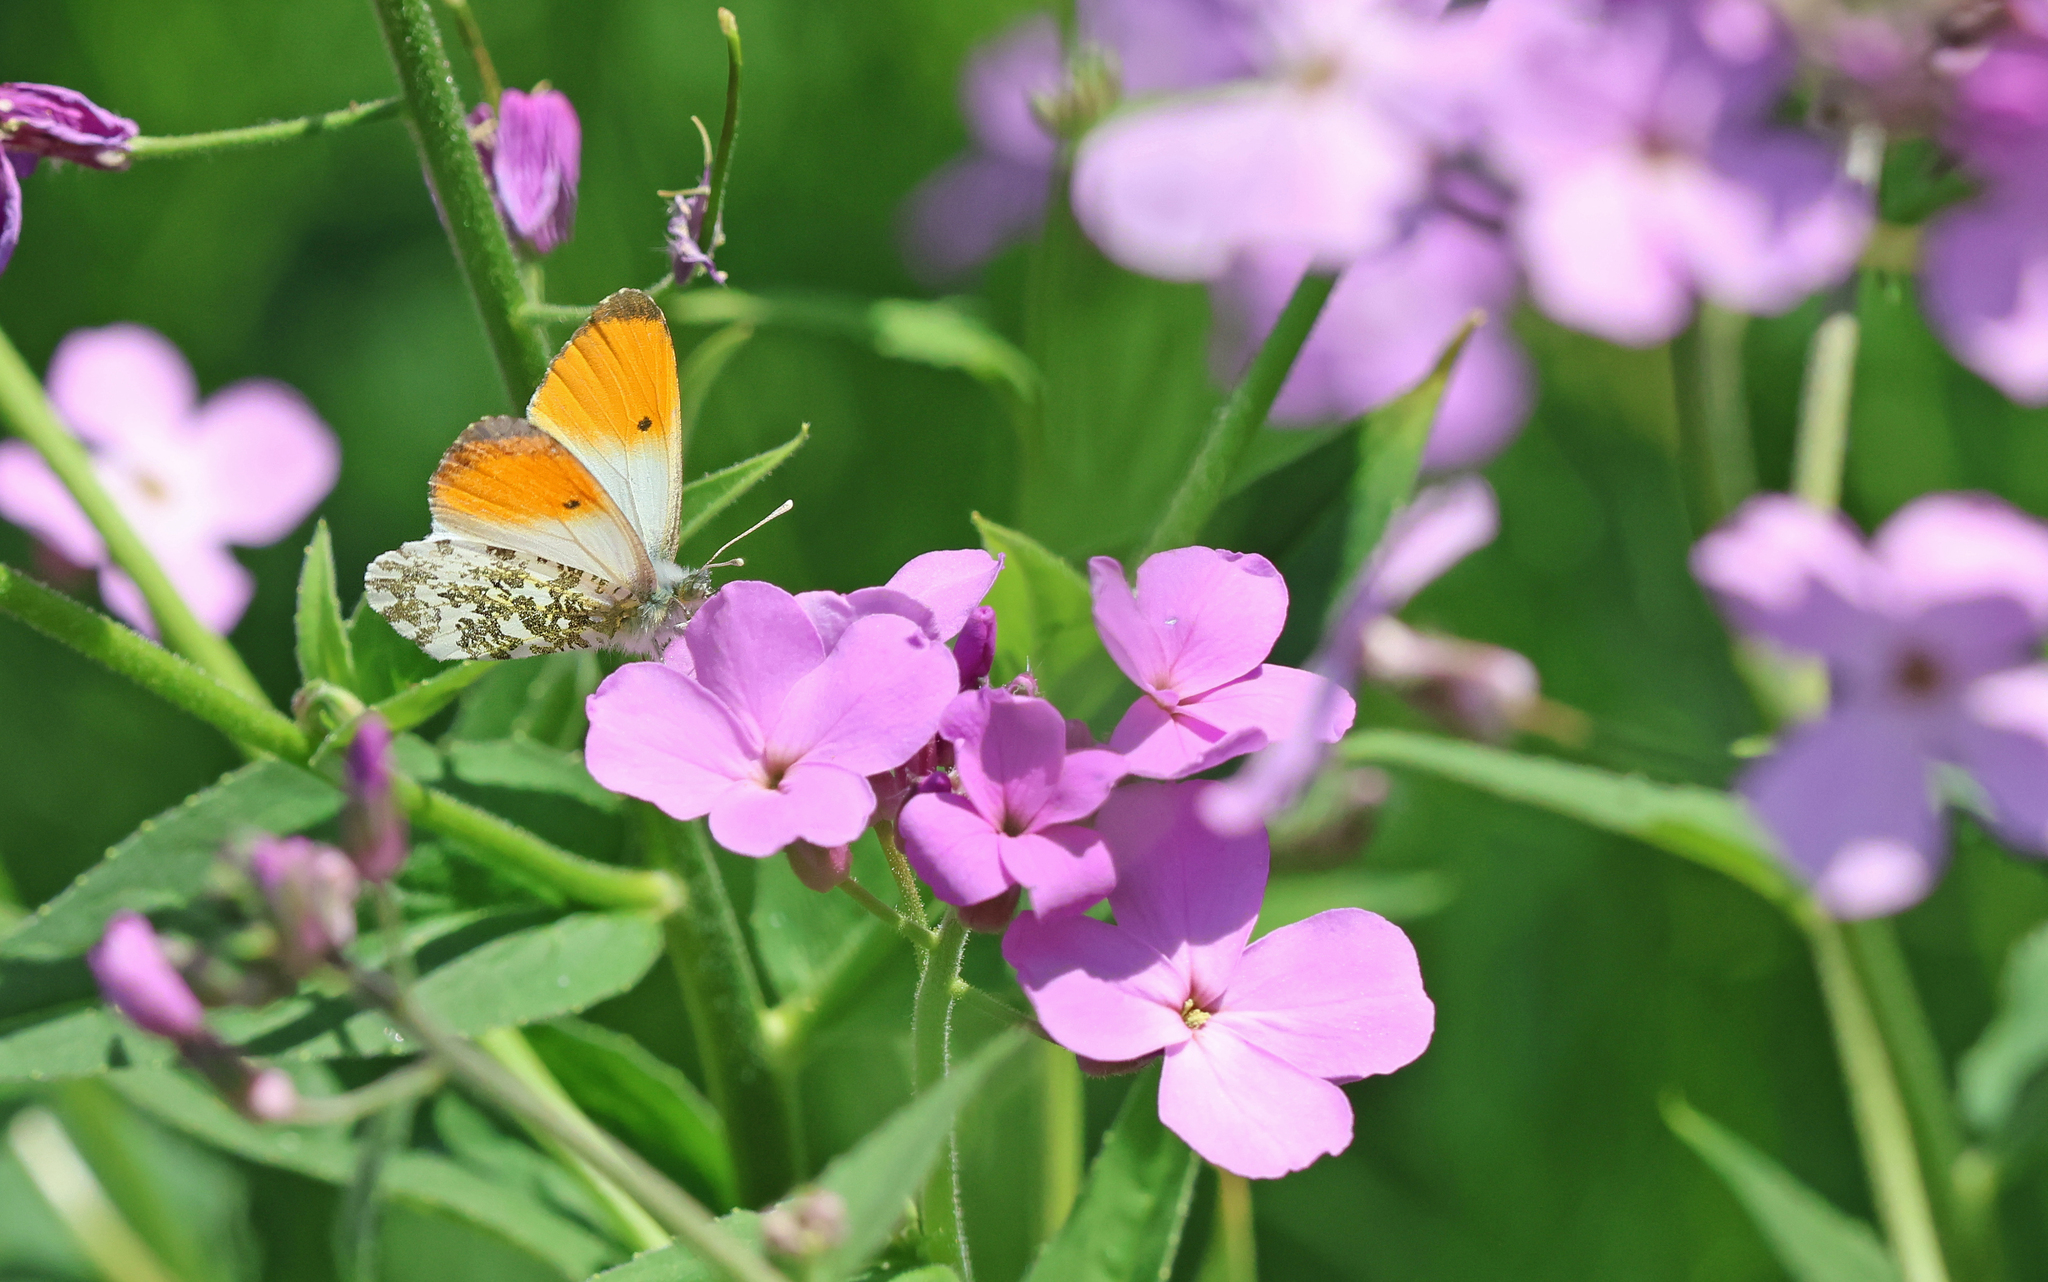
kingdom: Animalia
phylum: Arthropoda
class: Insecta
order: Lepidoptera
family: Pieridae
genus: Anthocharis
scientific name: Anthocharis cardamines
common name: Orange-tip
